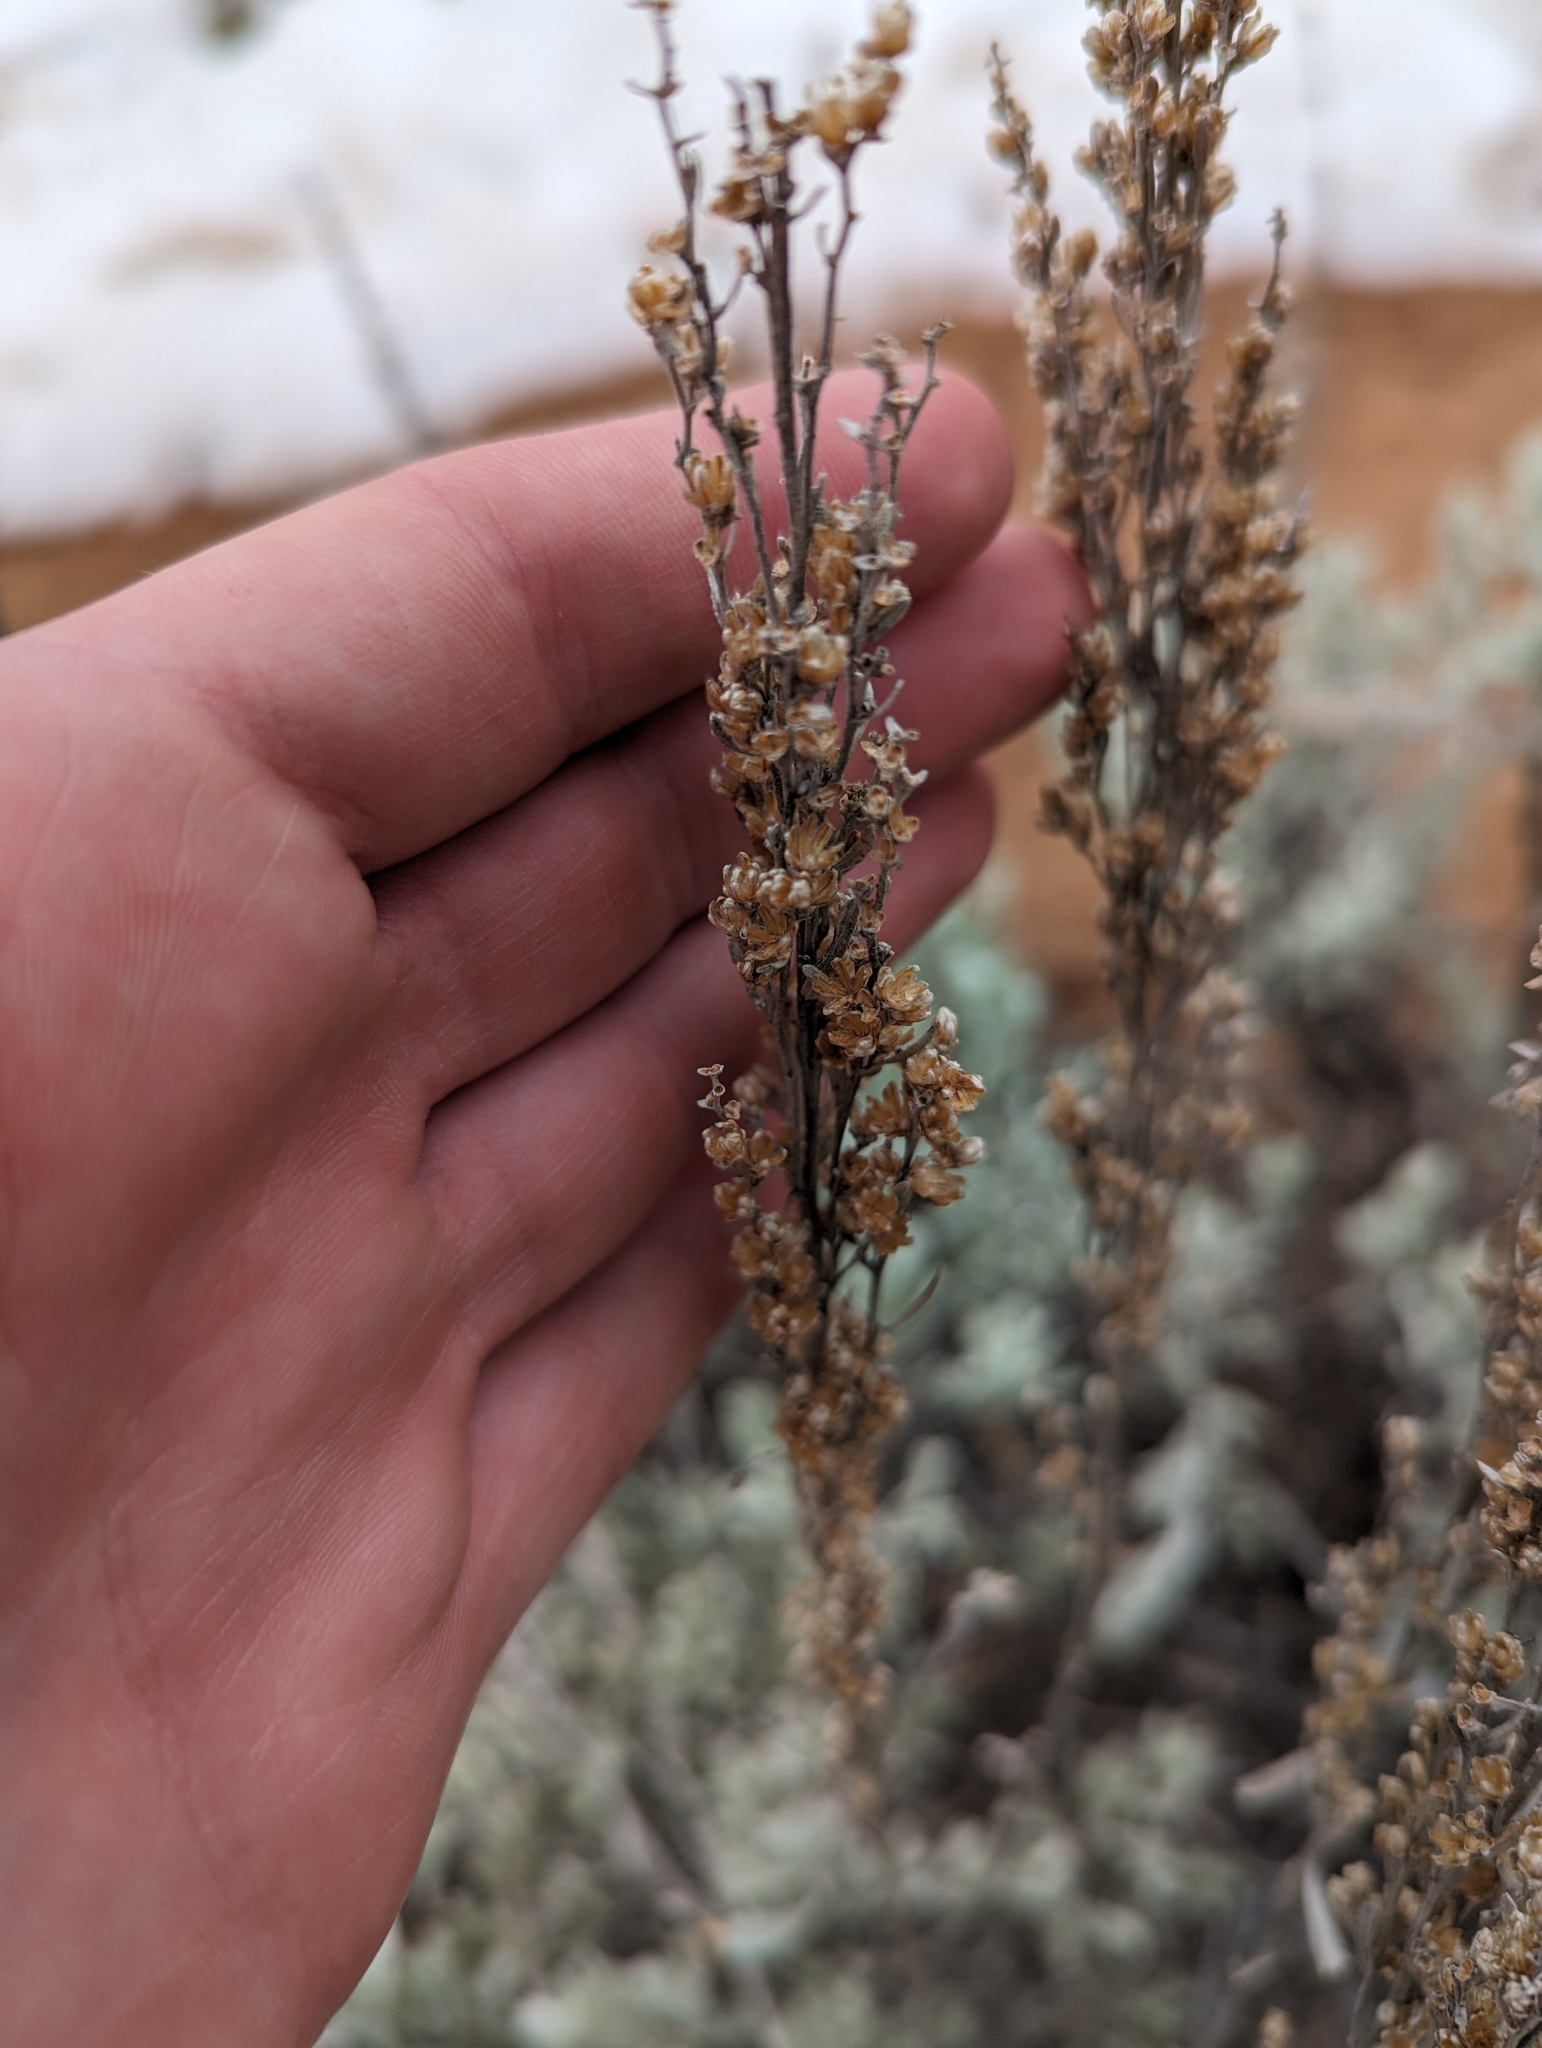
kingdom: Plantae
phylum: Tracheophyta
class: Magnoliopsida
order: Asterales
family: Asteraceae
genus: Artemisia
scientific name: Artemisia tridentata
